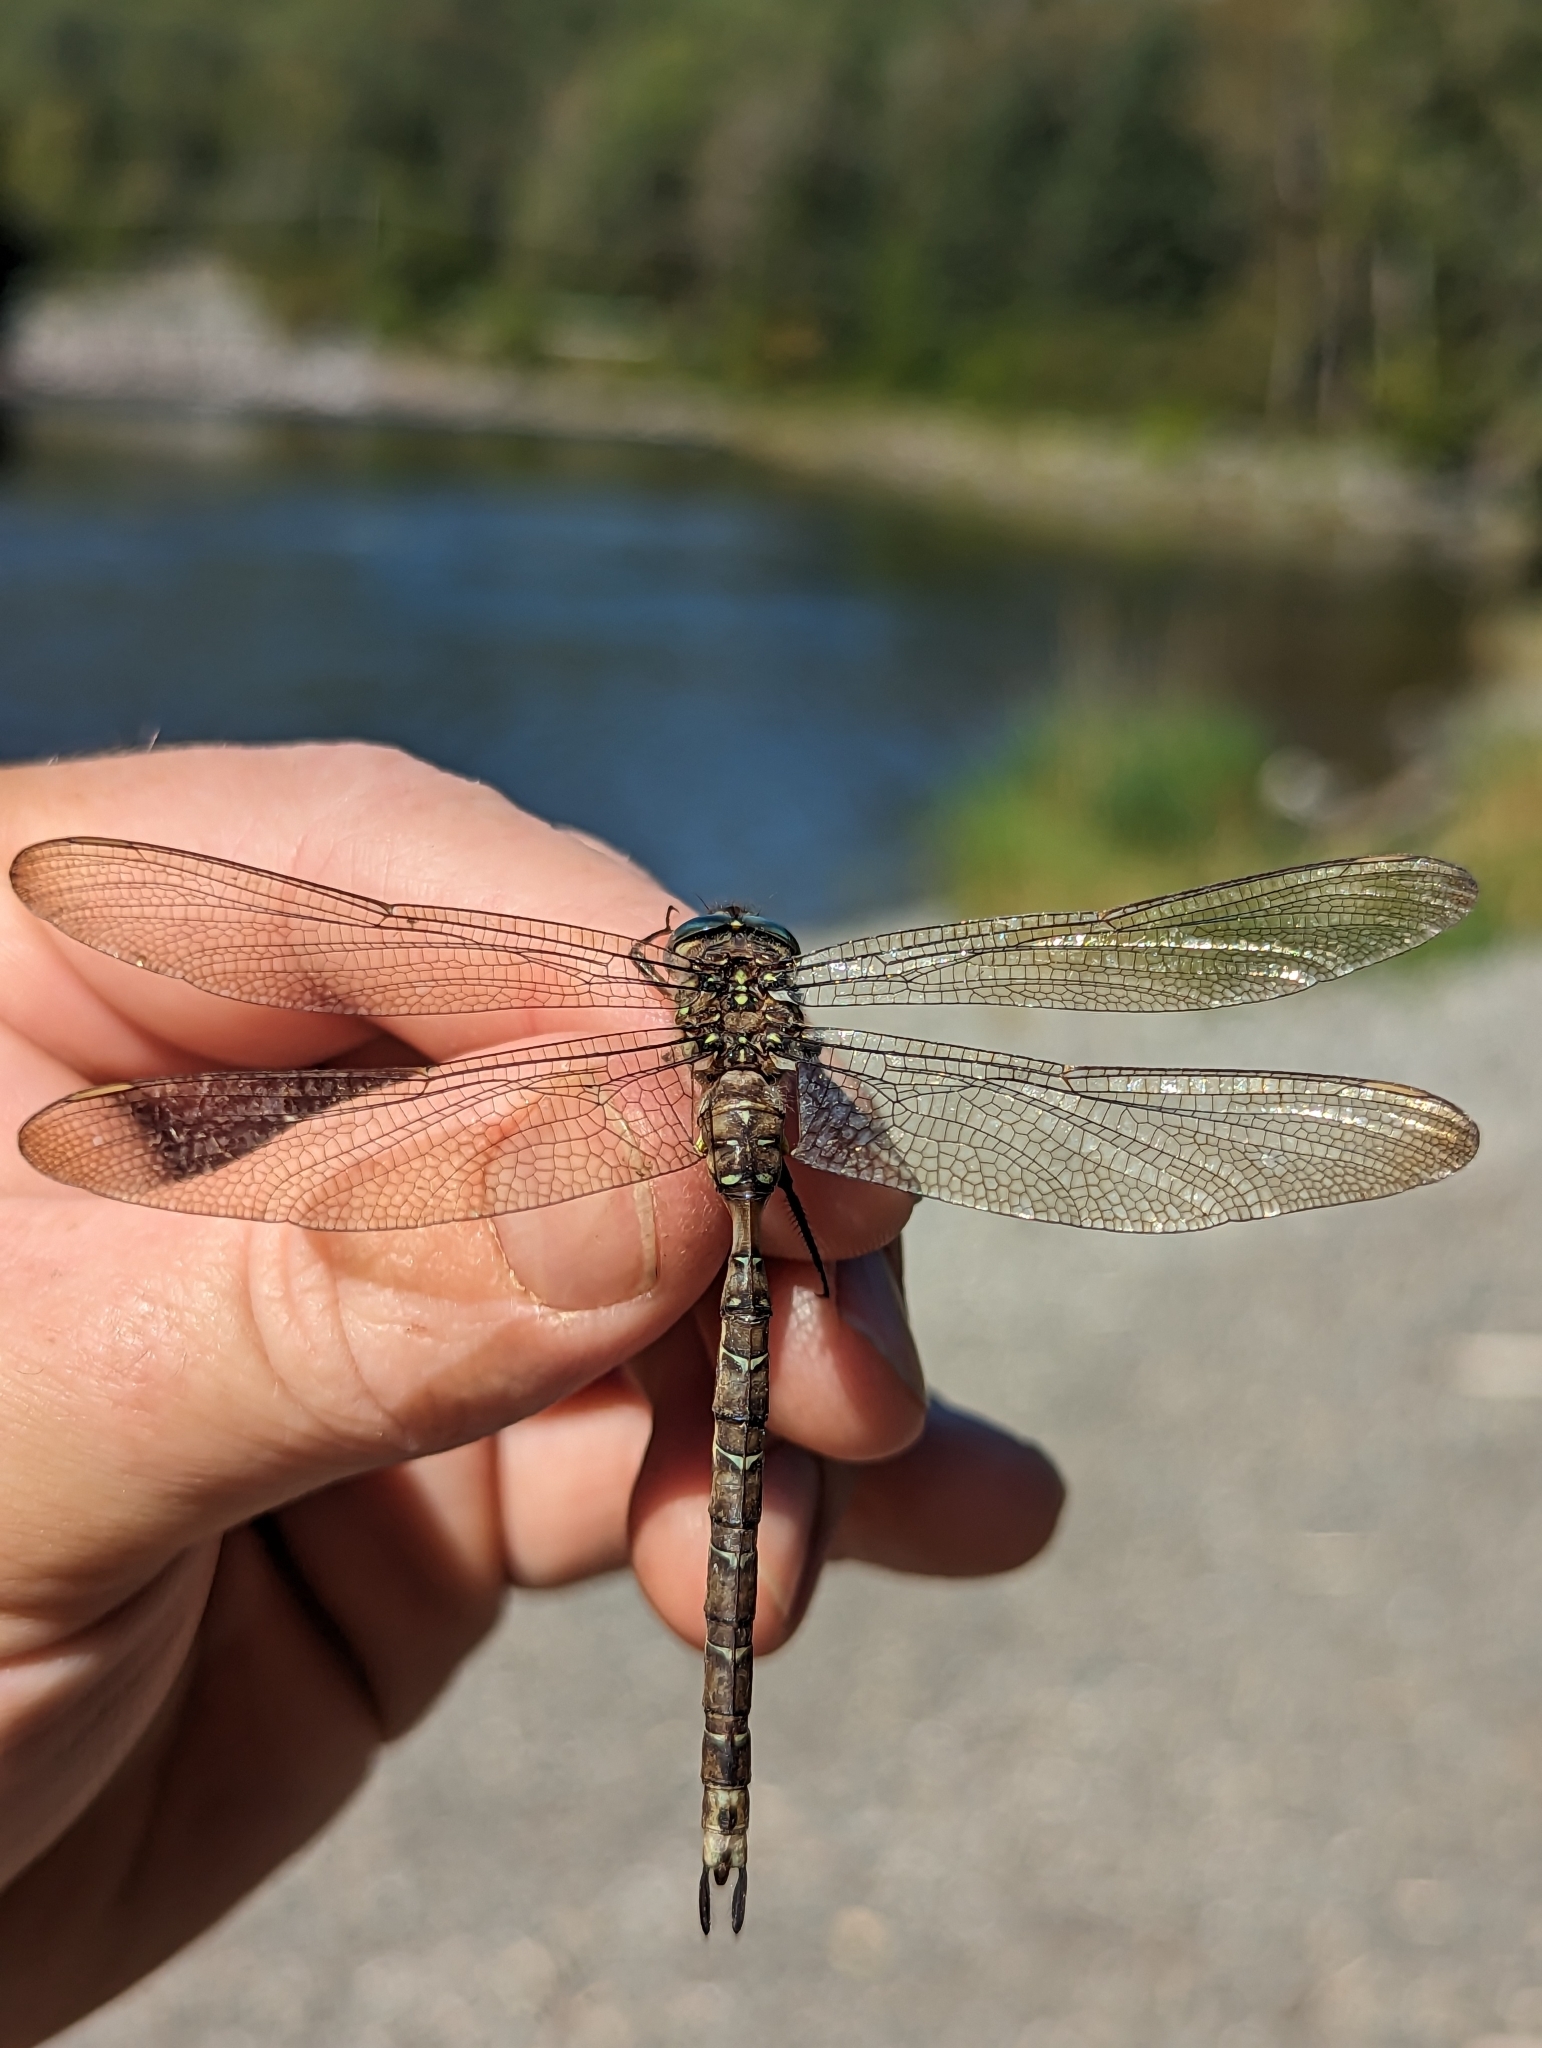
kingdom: Animalia
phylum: Arthropoda
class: Insecta
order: Odonata
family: Aeshnidae
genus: Boyeria
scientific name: Boyeria grafiana
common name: Ocellated darner
